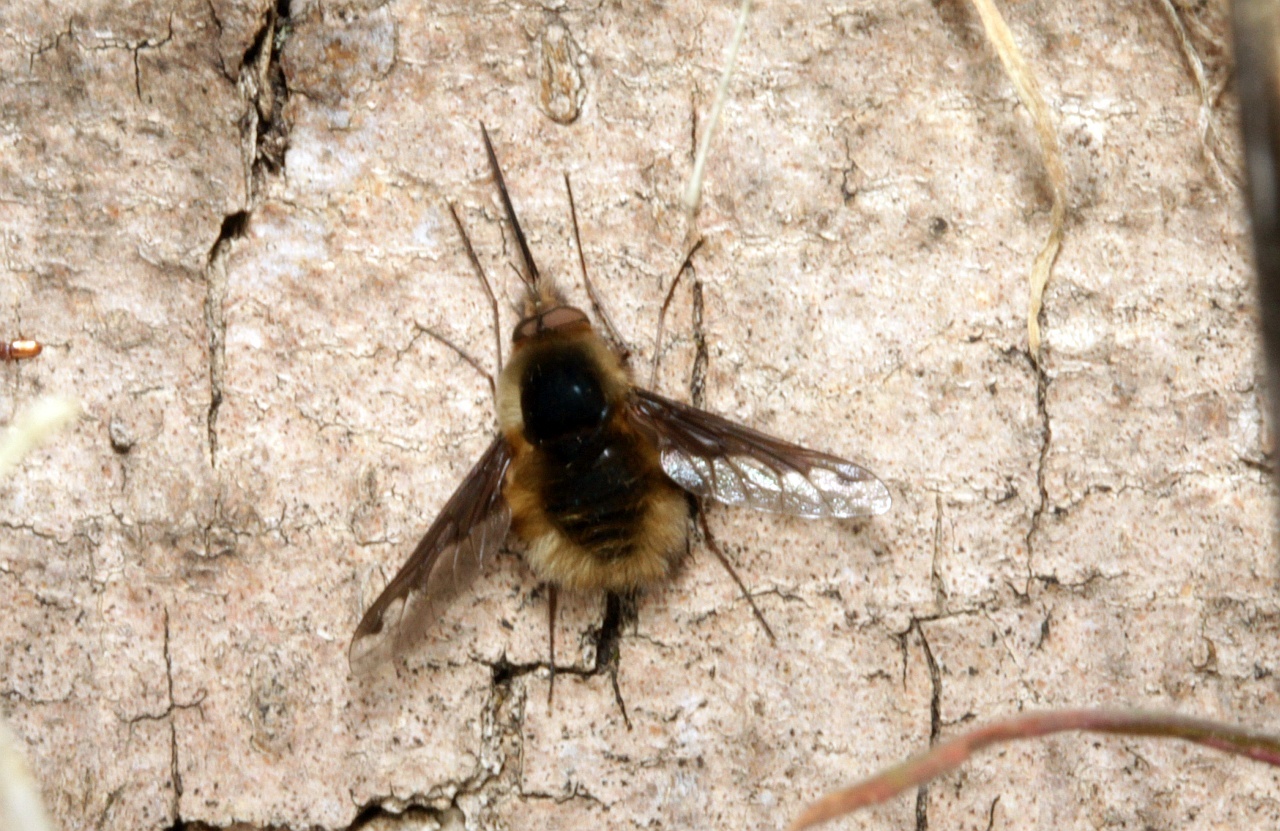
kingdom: Animalia
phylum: Arthropoda
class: Insecta
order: Diptera
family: Bombyliidae
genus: Bombylius
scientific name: Bombylius major
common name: Bee fly
